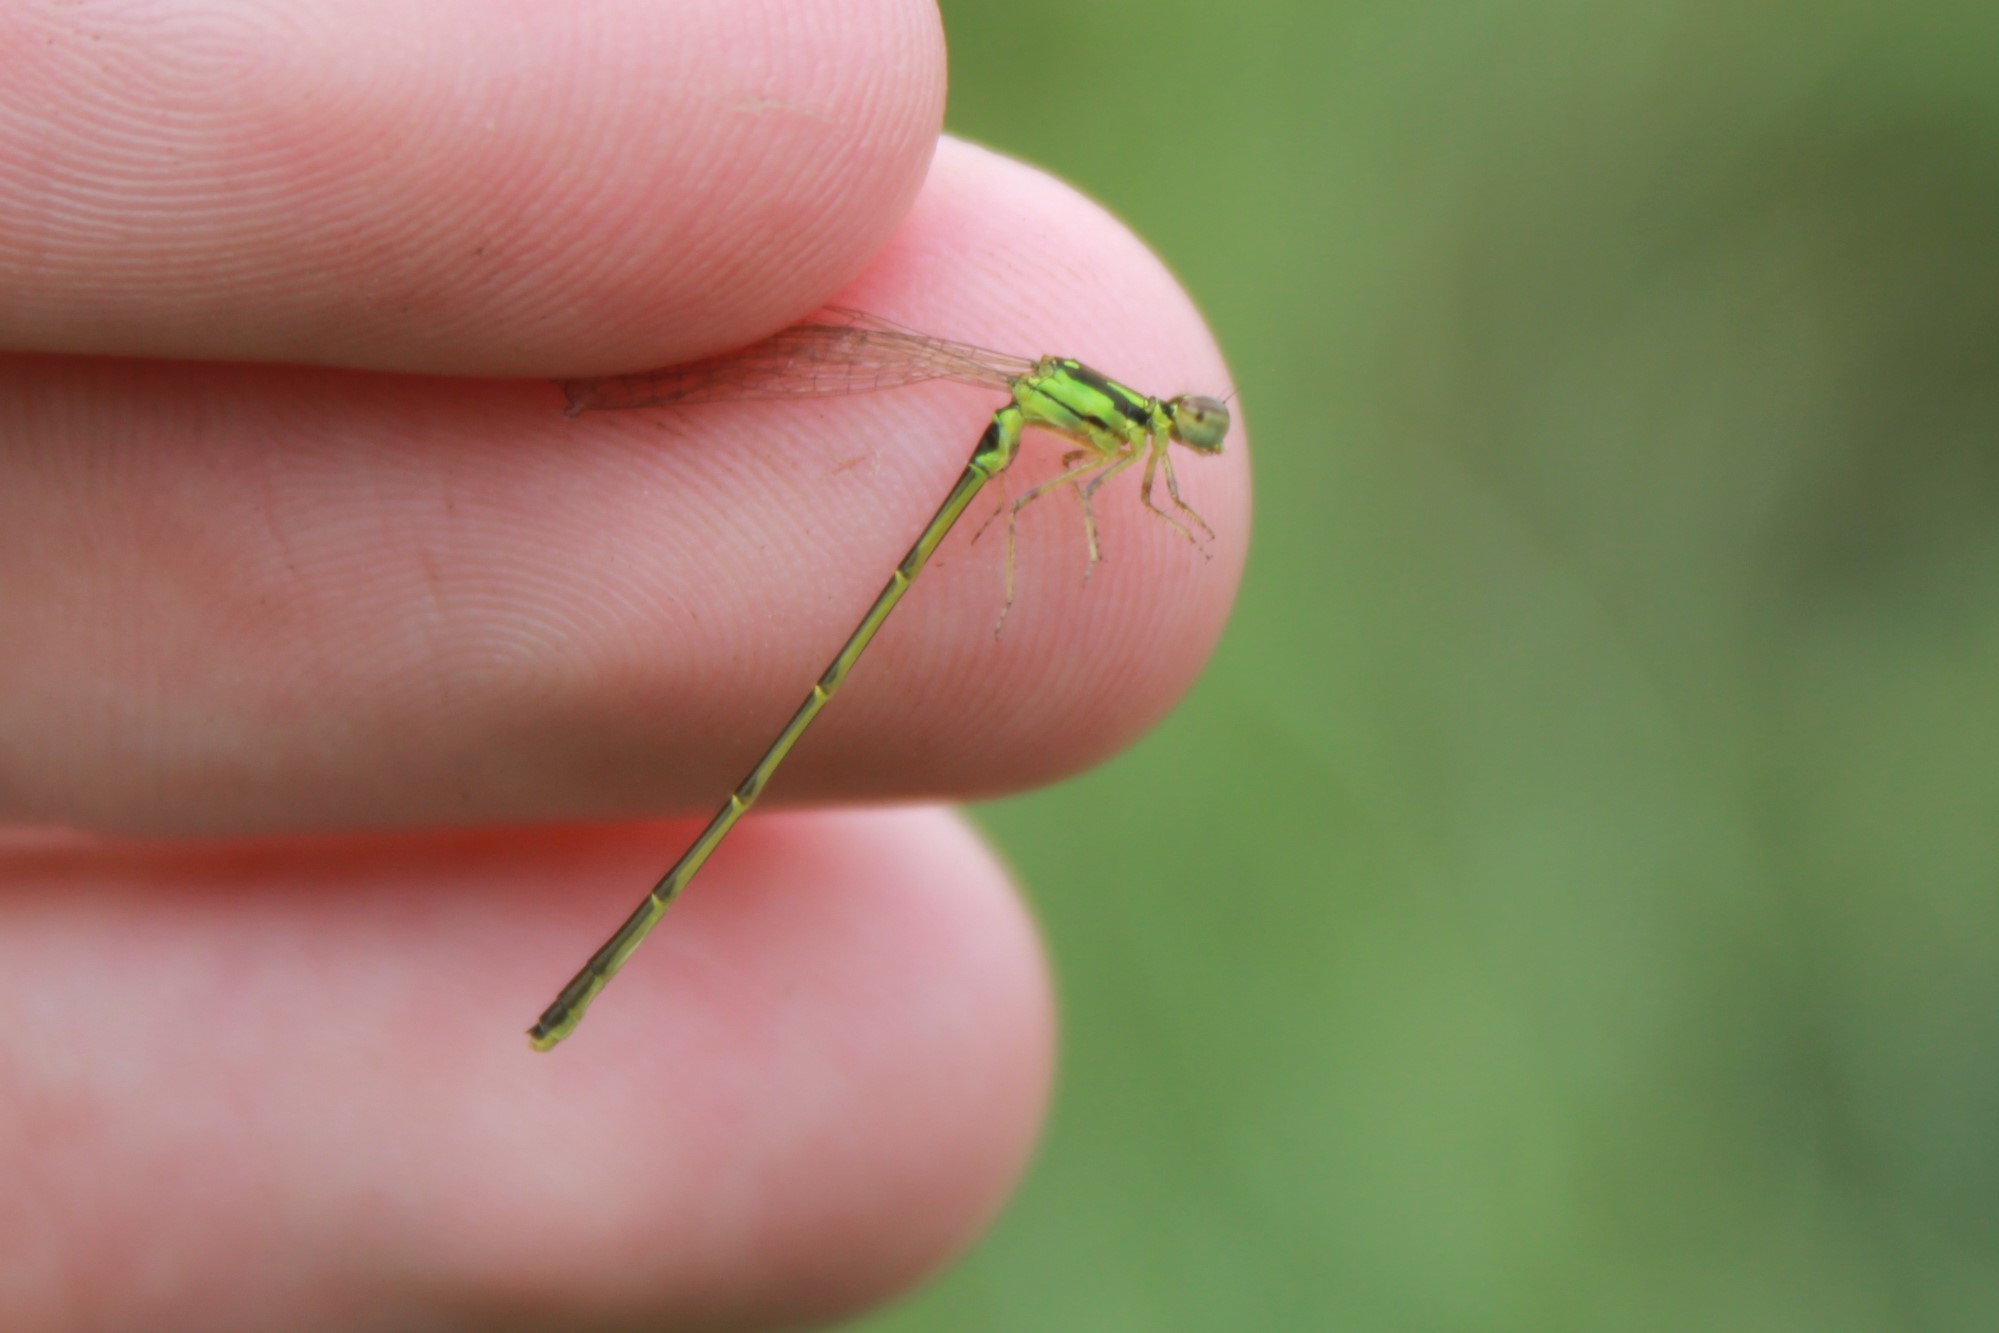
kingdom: Animalia
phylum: Arthropoda
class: Insecta
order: Odonata
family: Coenagrionidae
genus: Ischnura
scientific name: Ischnura posita
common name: Fragile forktail
